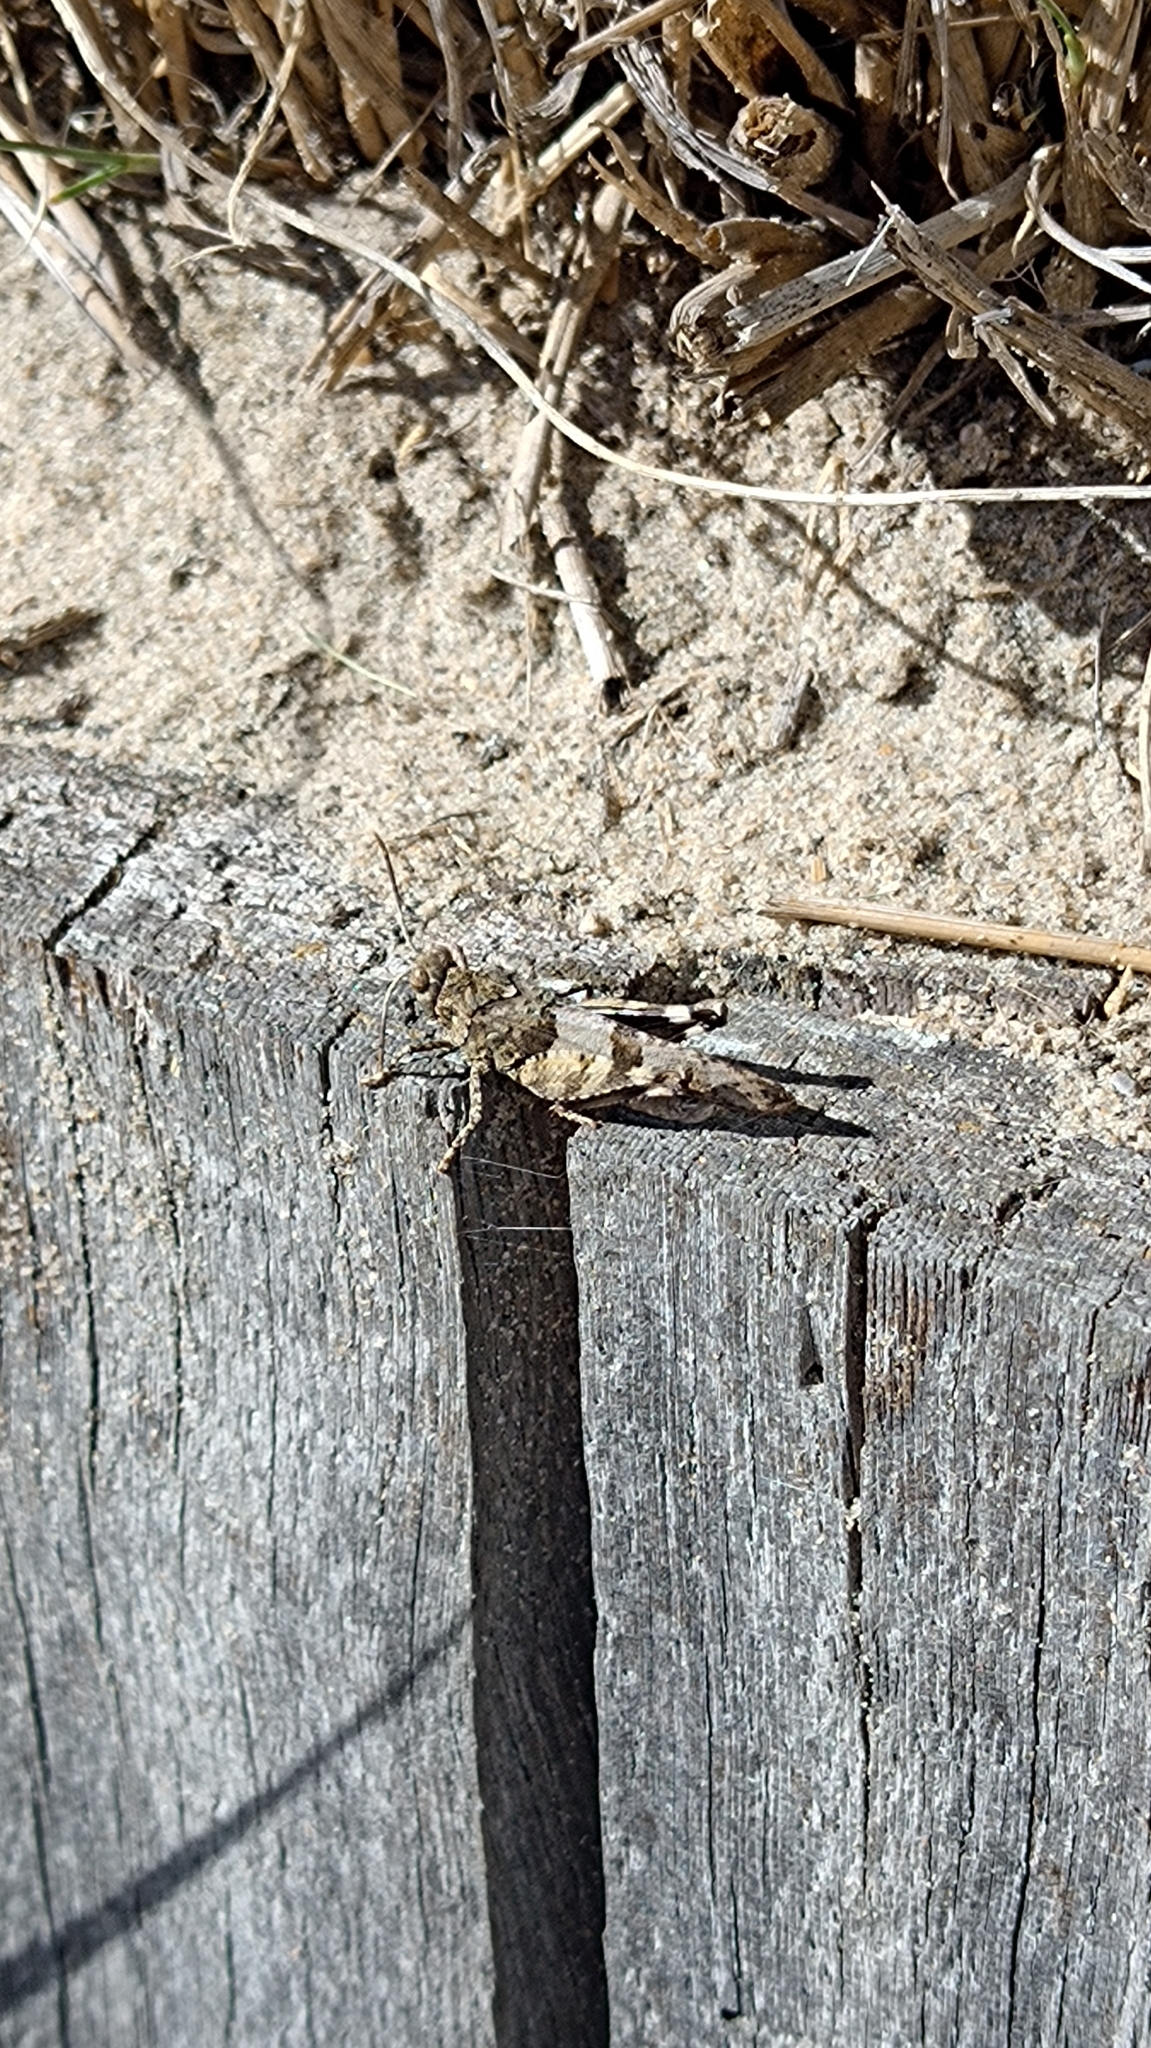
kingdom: Animalia
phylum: Arthropoda
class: Insecta
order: Orthoptera
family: Acrididae
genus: Oedipoda
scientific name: Oedipoda caerulescens
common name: Blue-winged grasshopper
